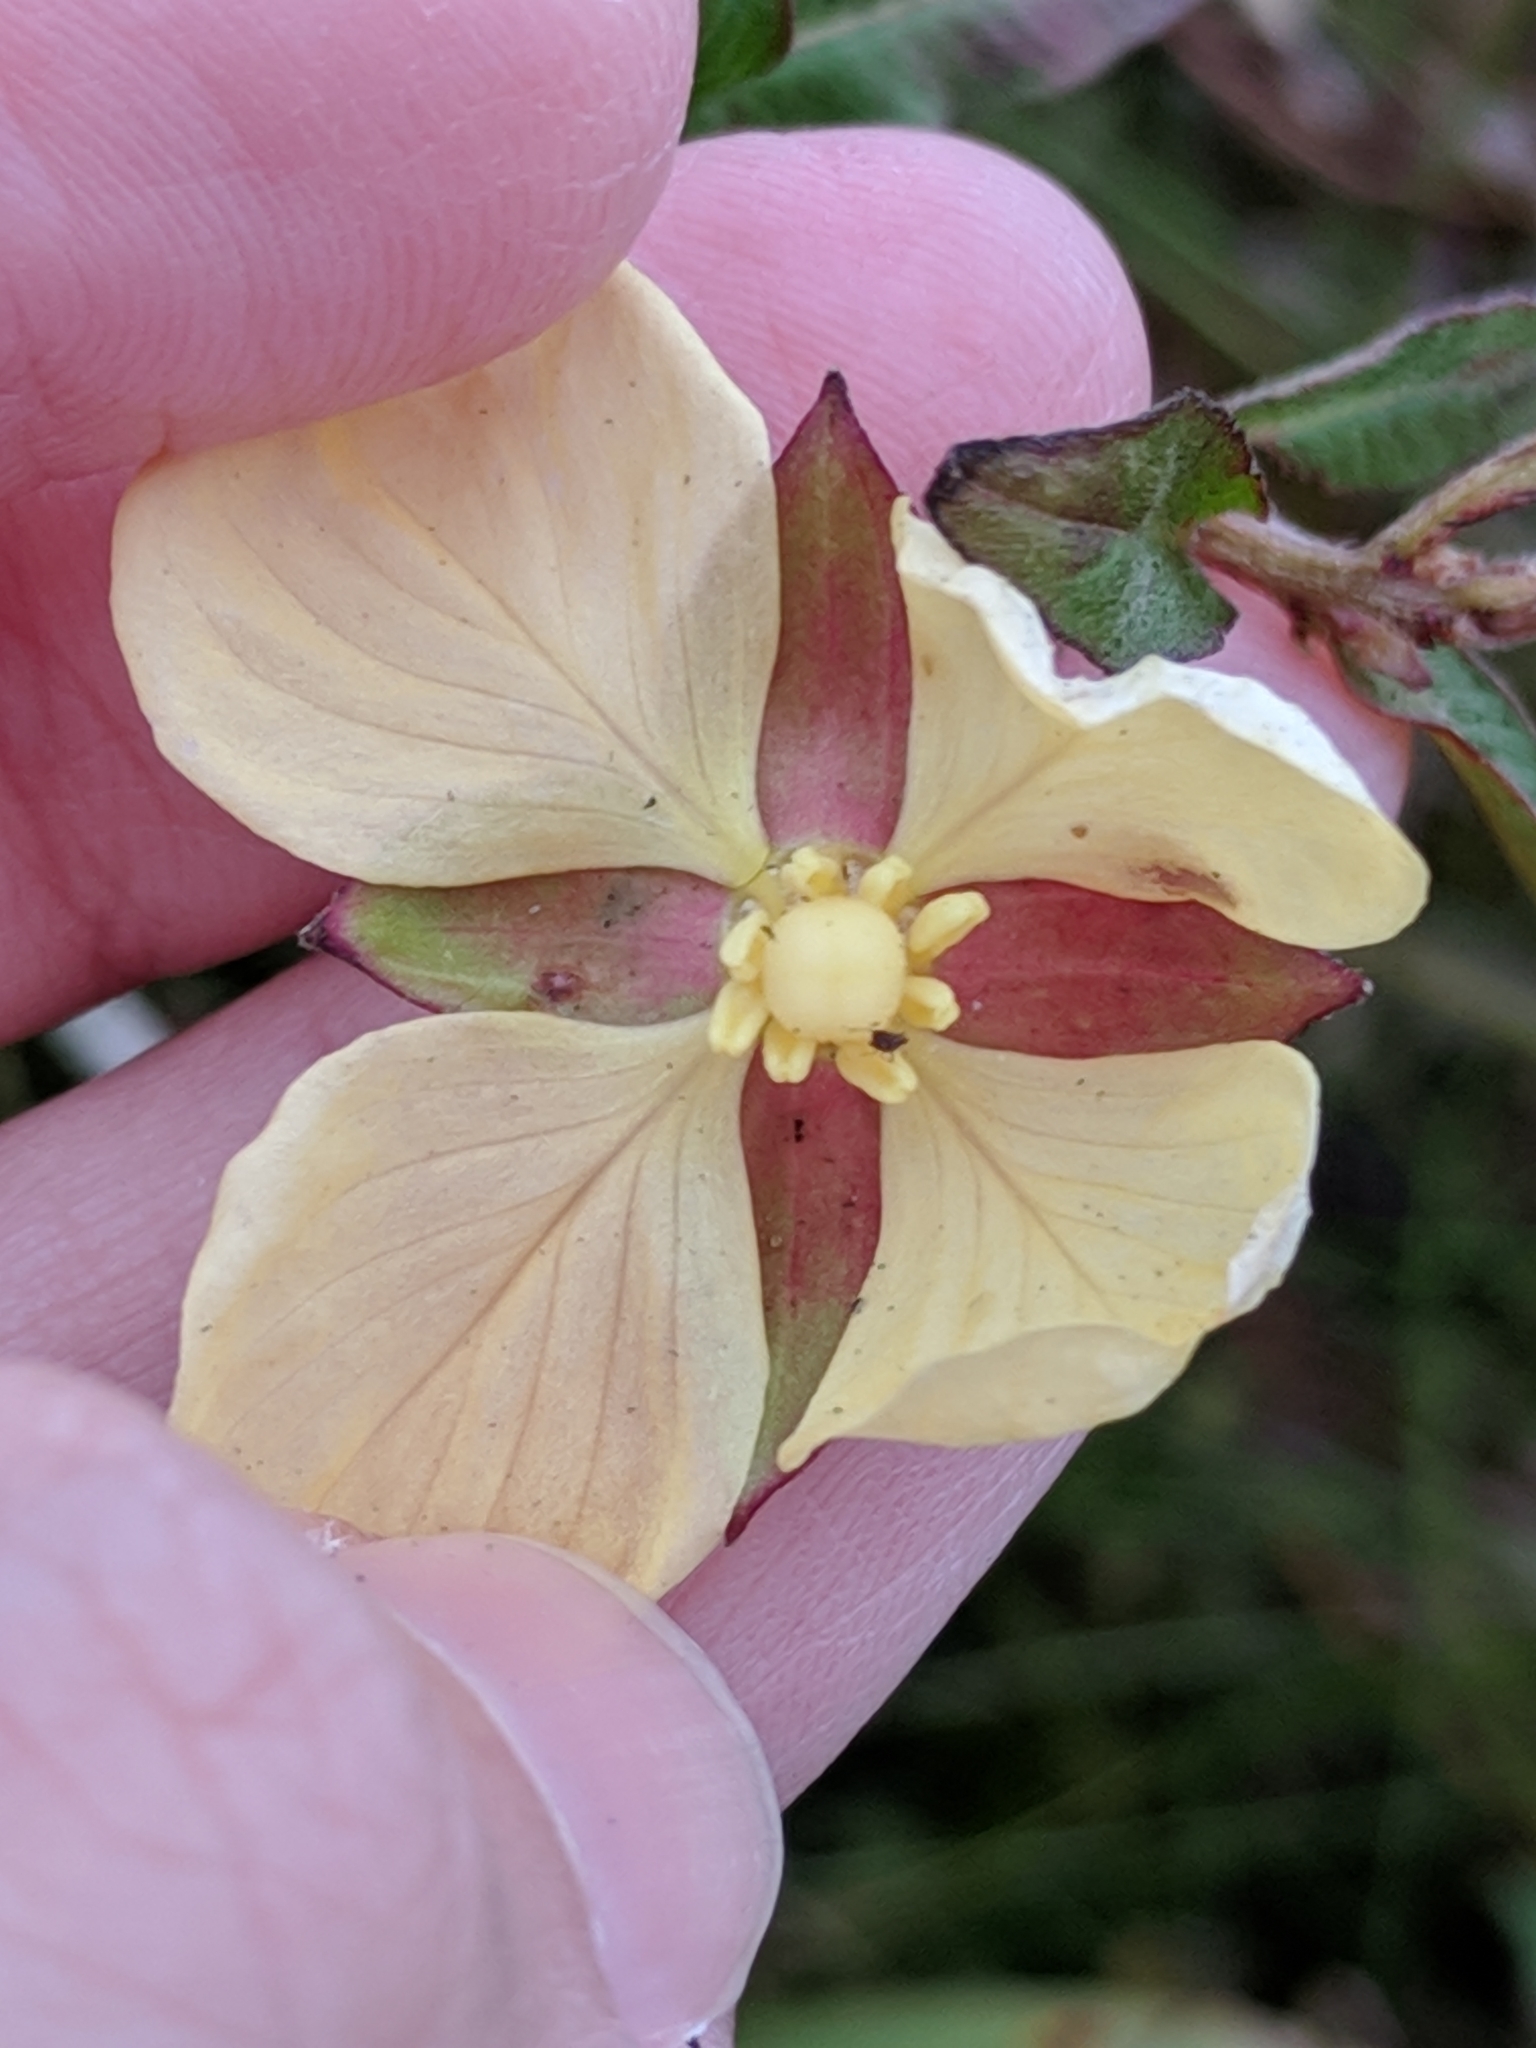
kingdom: Plantae
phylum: Tracheophyta
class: Magnoliopsida
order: Myrtales
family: Onagraceae
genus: Ludwigia
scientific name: Ludwigia octovalvis
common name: Water-primrose
